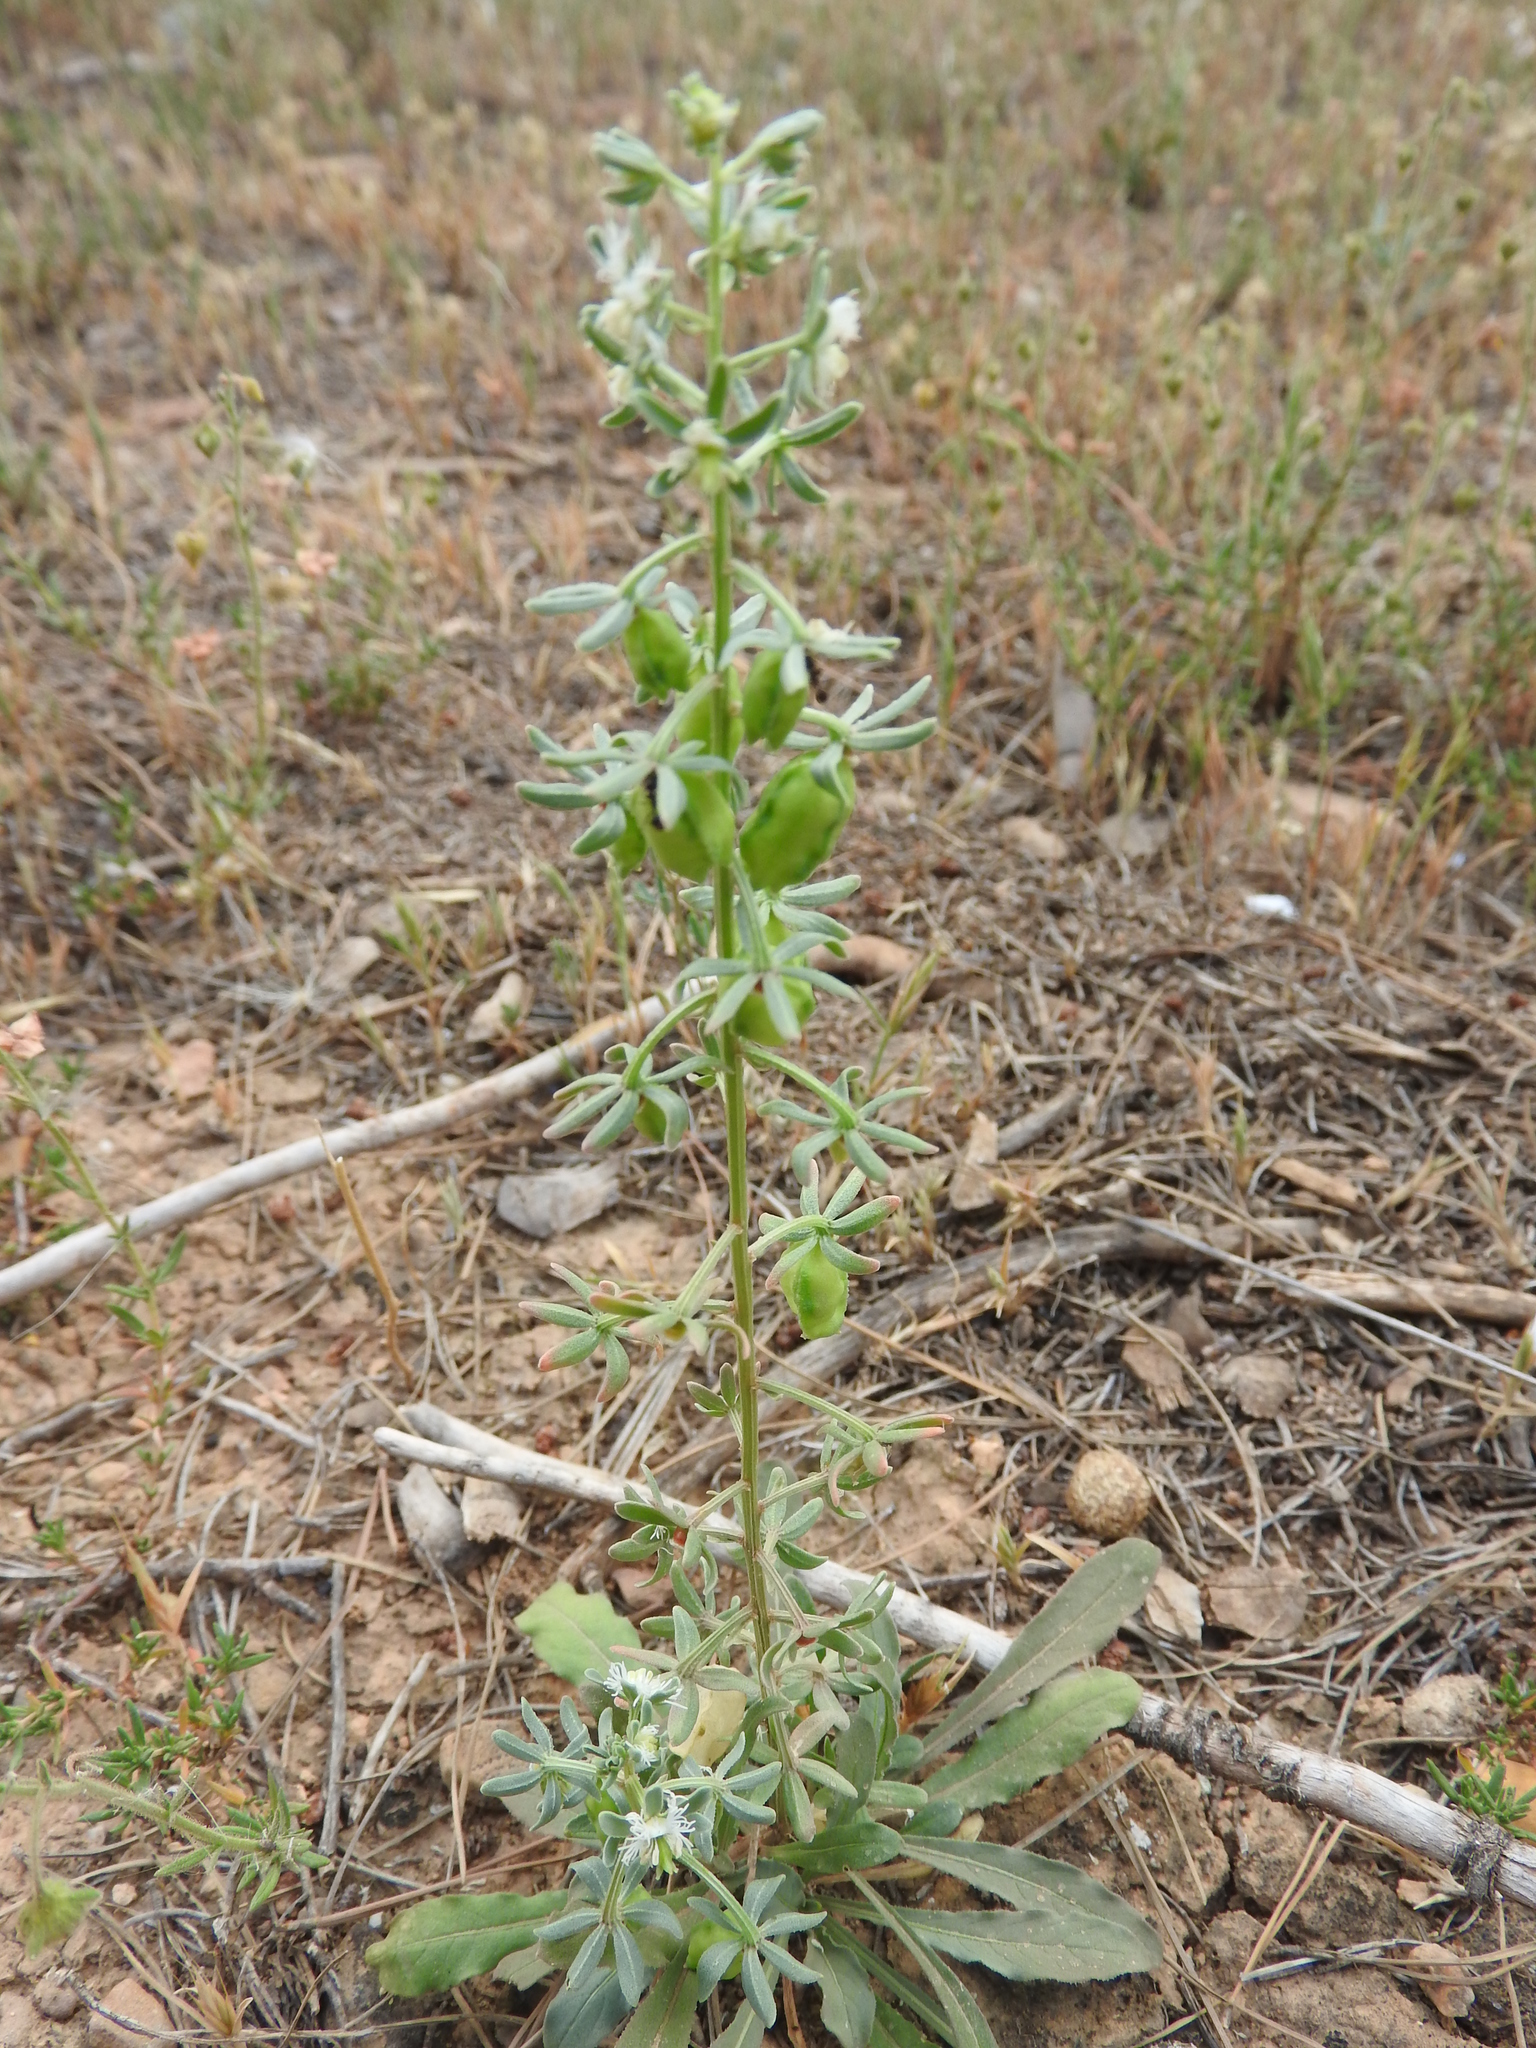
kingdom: Plantae
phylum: Tracheophyta
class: Magnoliopsida
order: Brassicales
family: Resedaceae
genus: Reseda
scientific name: Reseda phyteuma
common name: Corn mignonette
